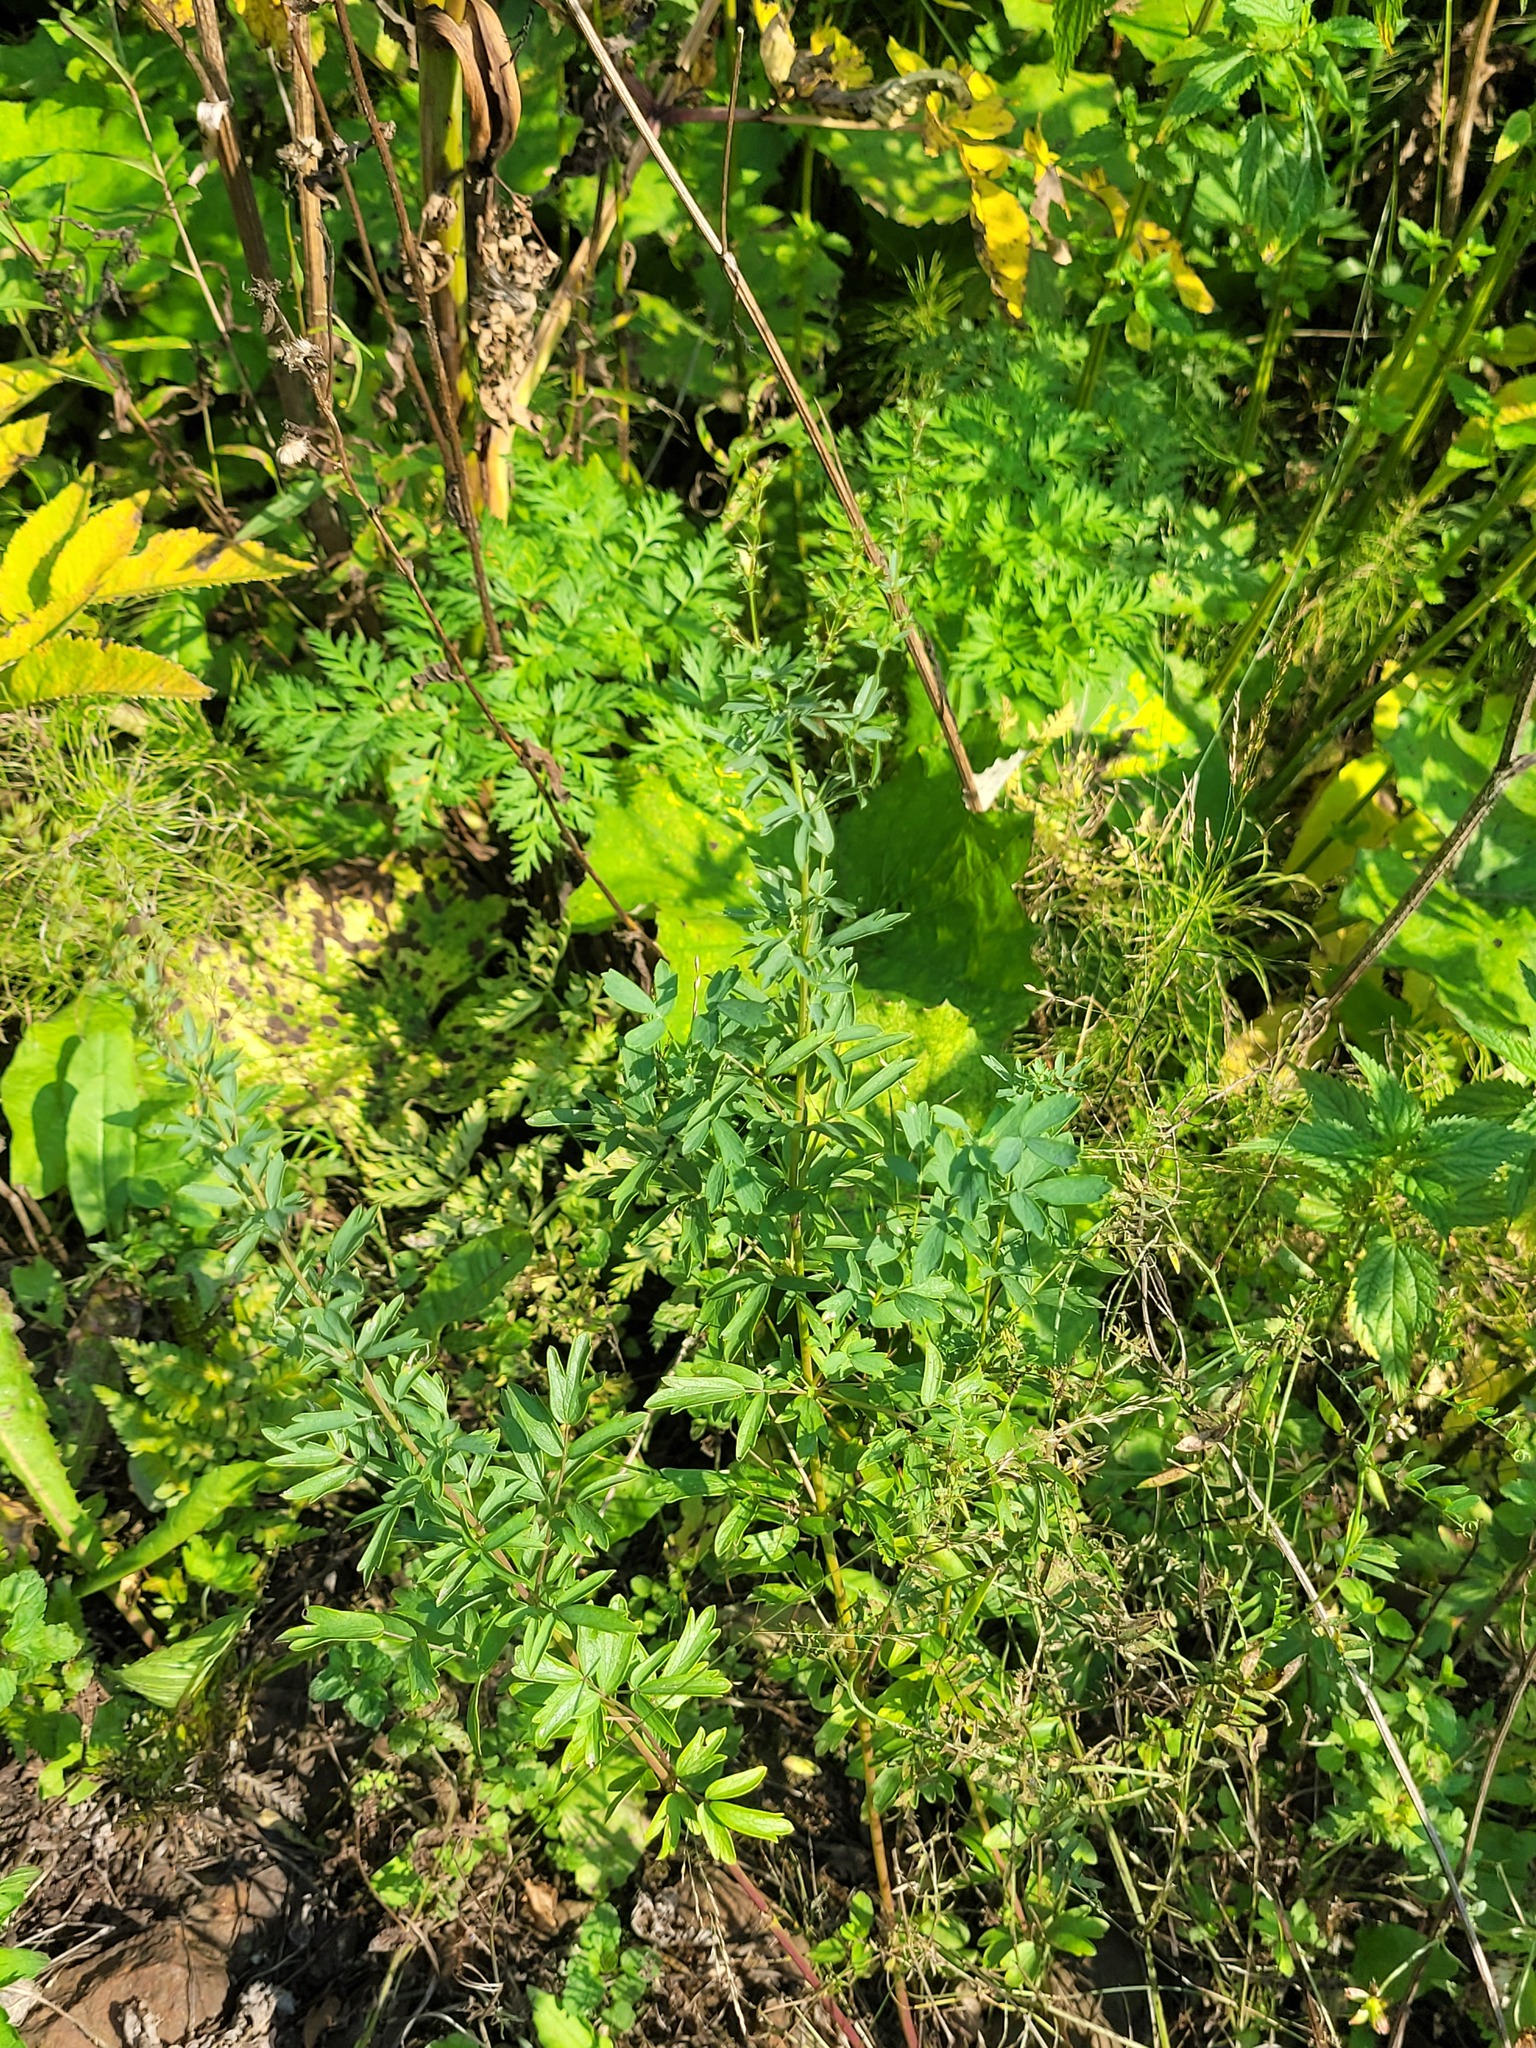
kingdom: Plantae
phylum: Tracheophyta
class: Magnoliopsida
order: Ranunculales
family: Ranunculaceae
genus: Thalictrum
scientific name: Thalictrum flavum
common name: Common meadow-rue
